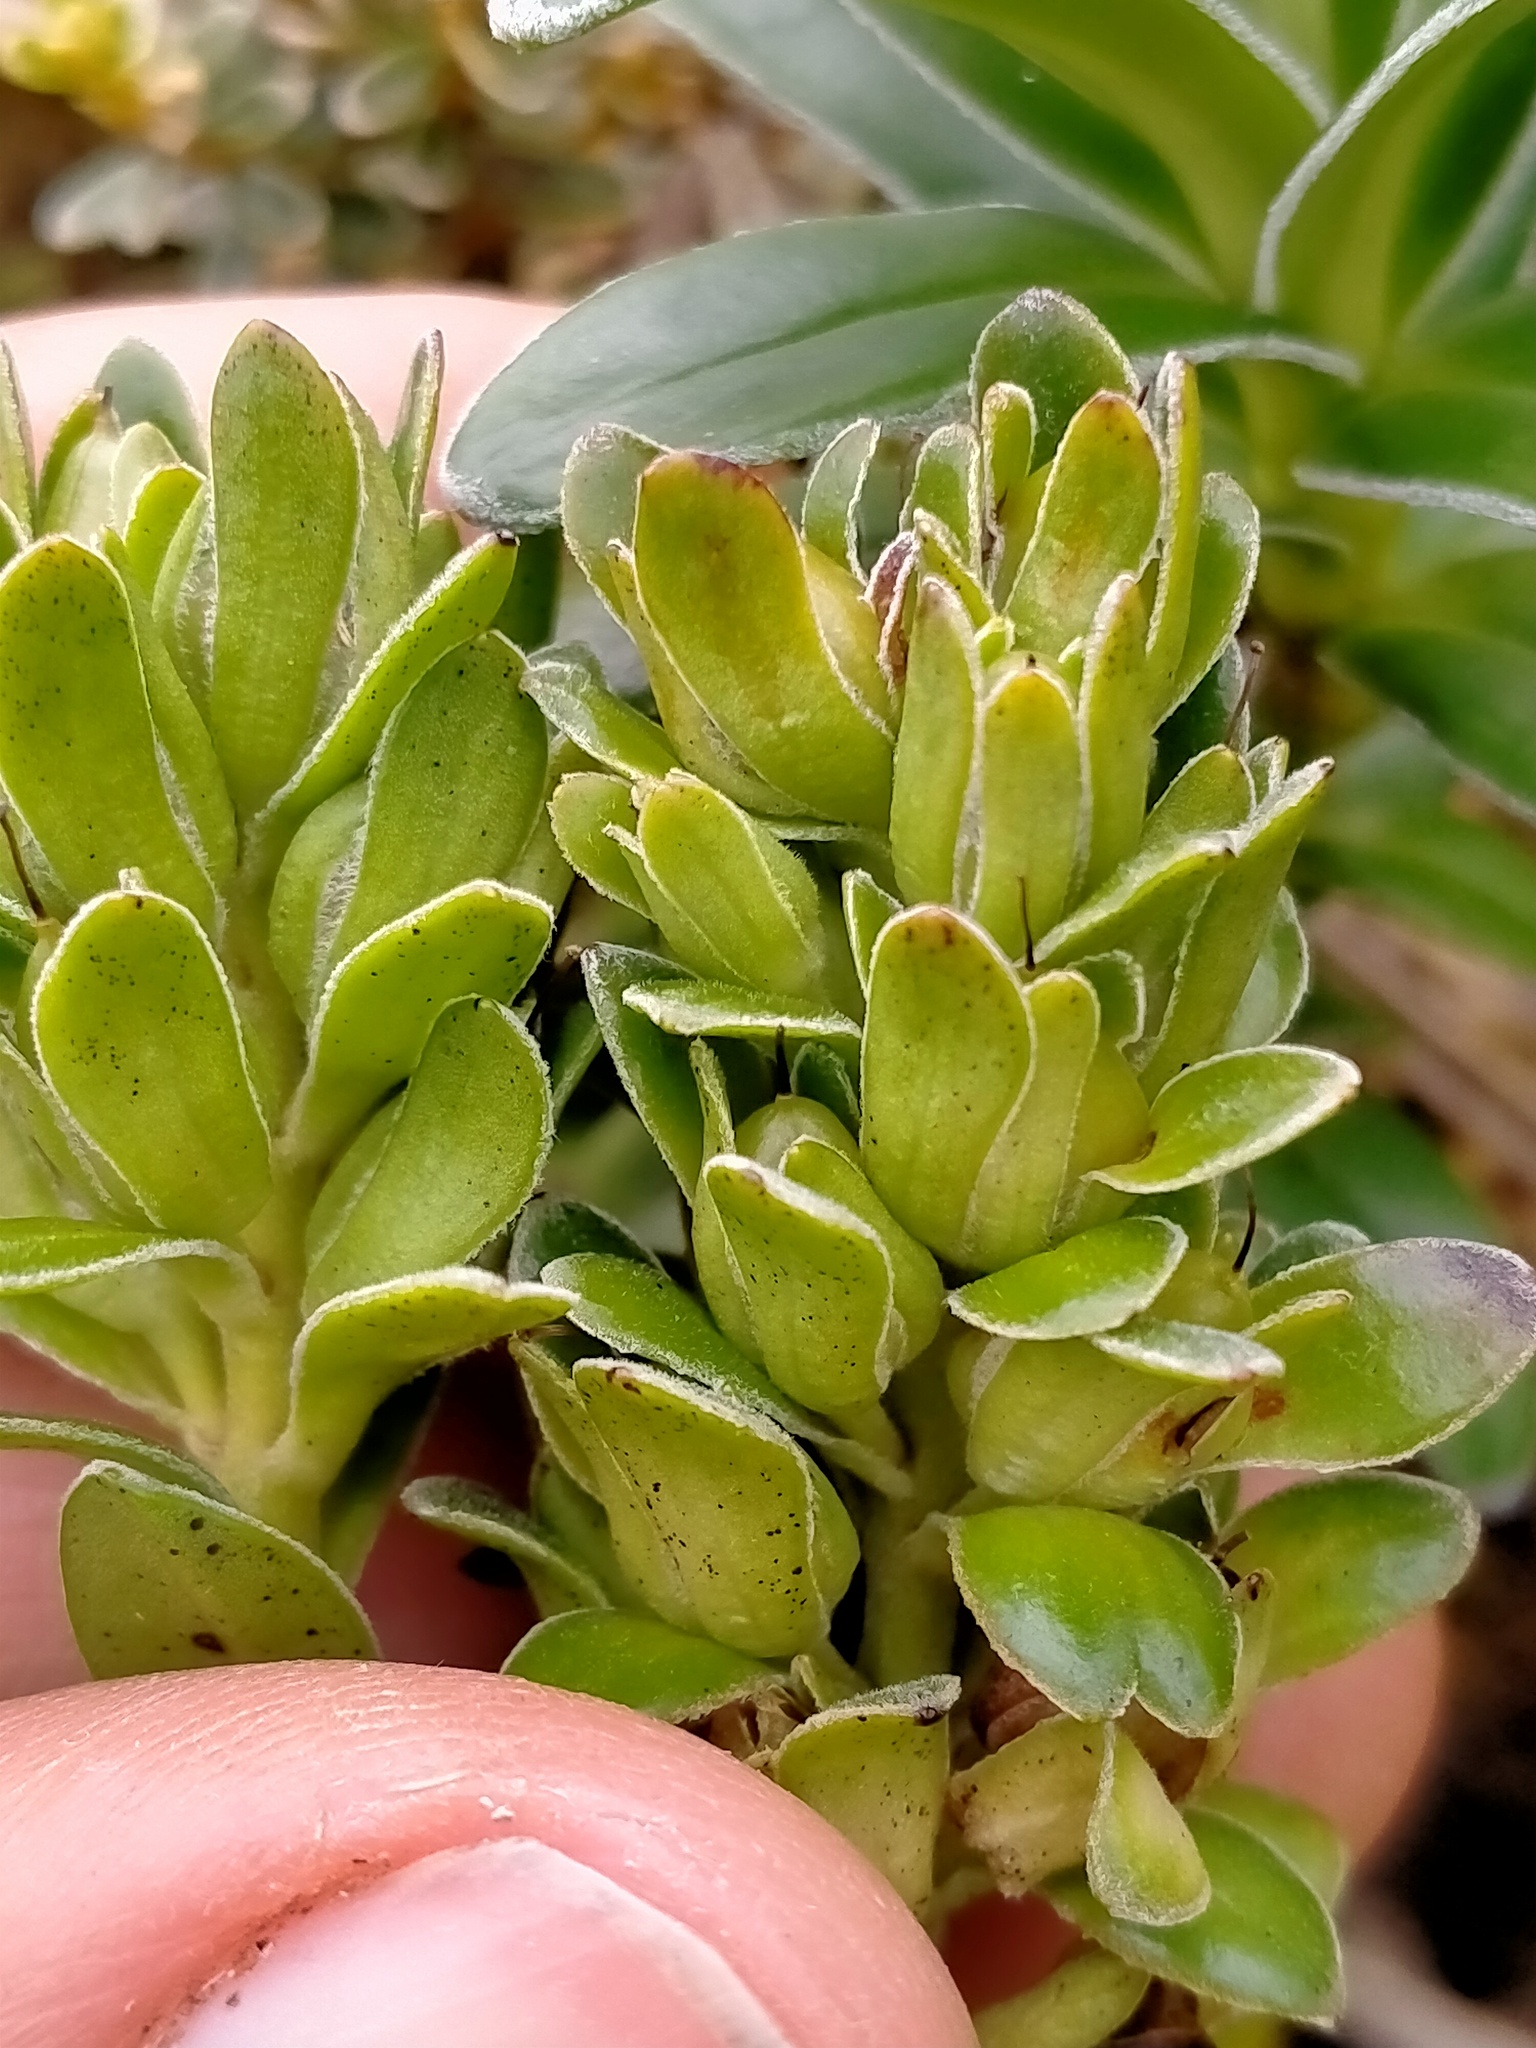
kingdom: Plantae
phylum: Tracheophyta
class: Magnoliopsida
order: Lamiales
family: Plantaginaceae
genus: Veronica
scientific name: Veronica benthamii
